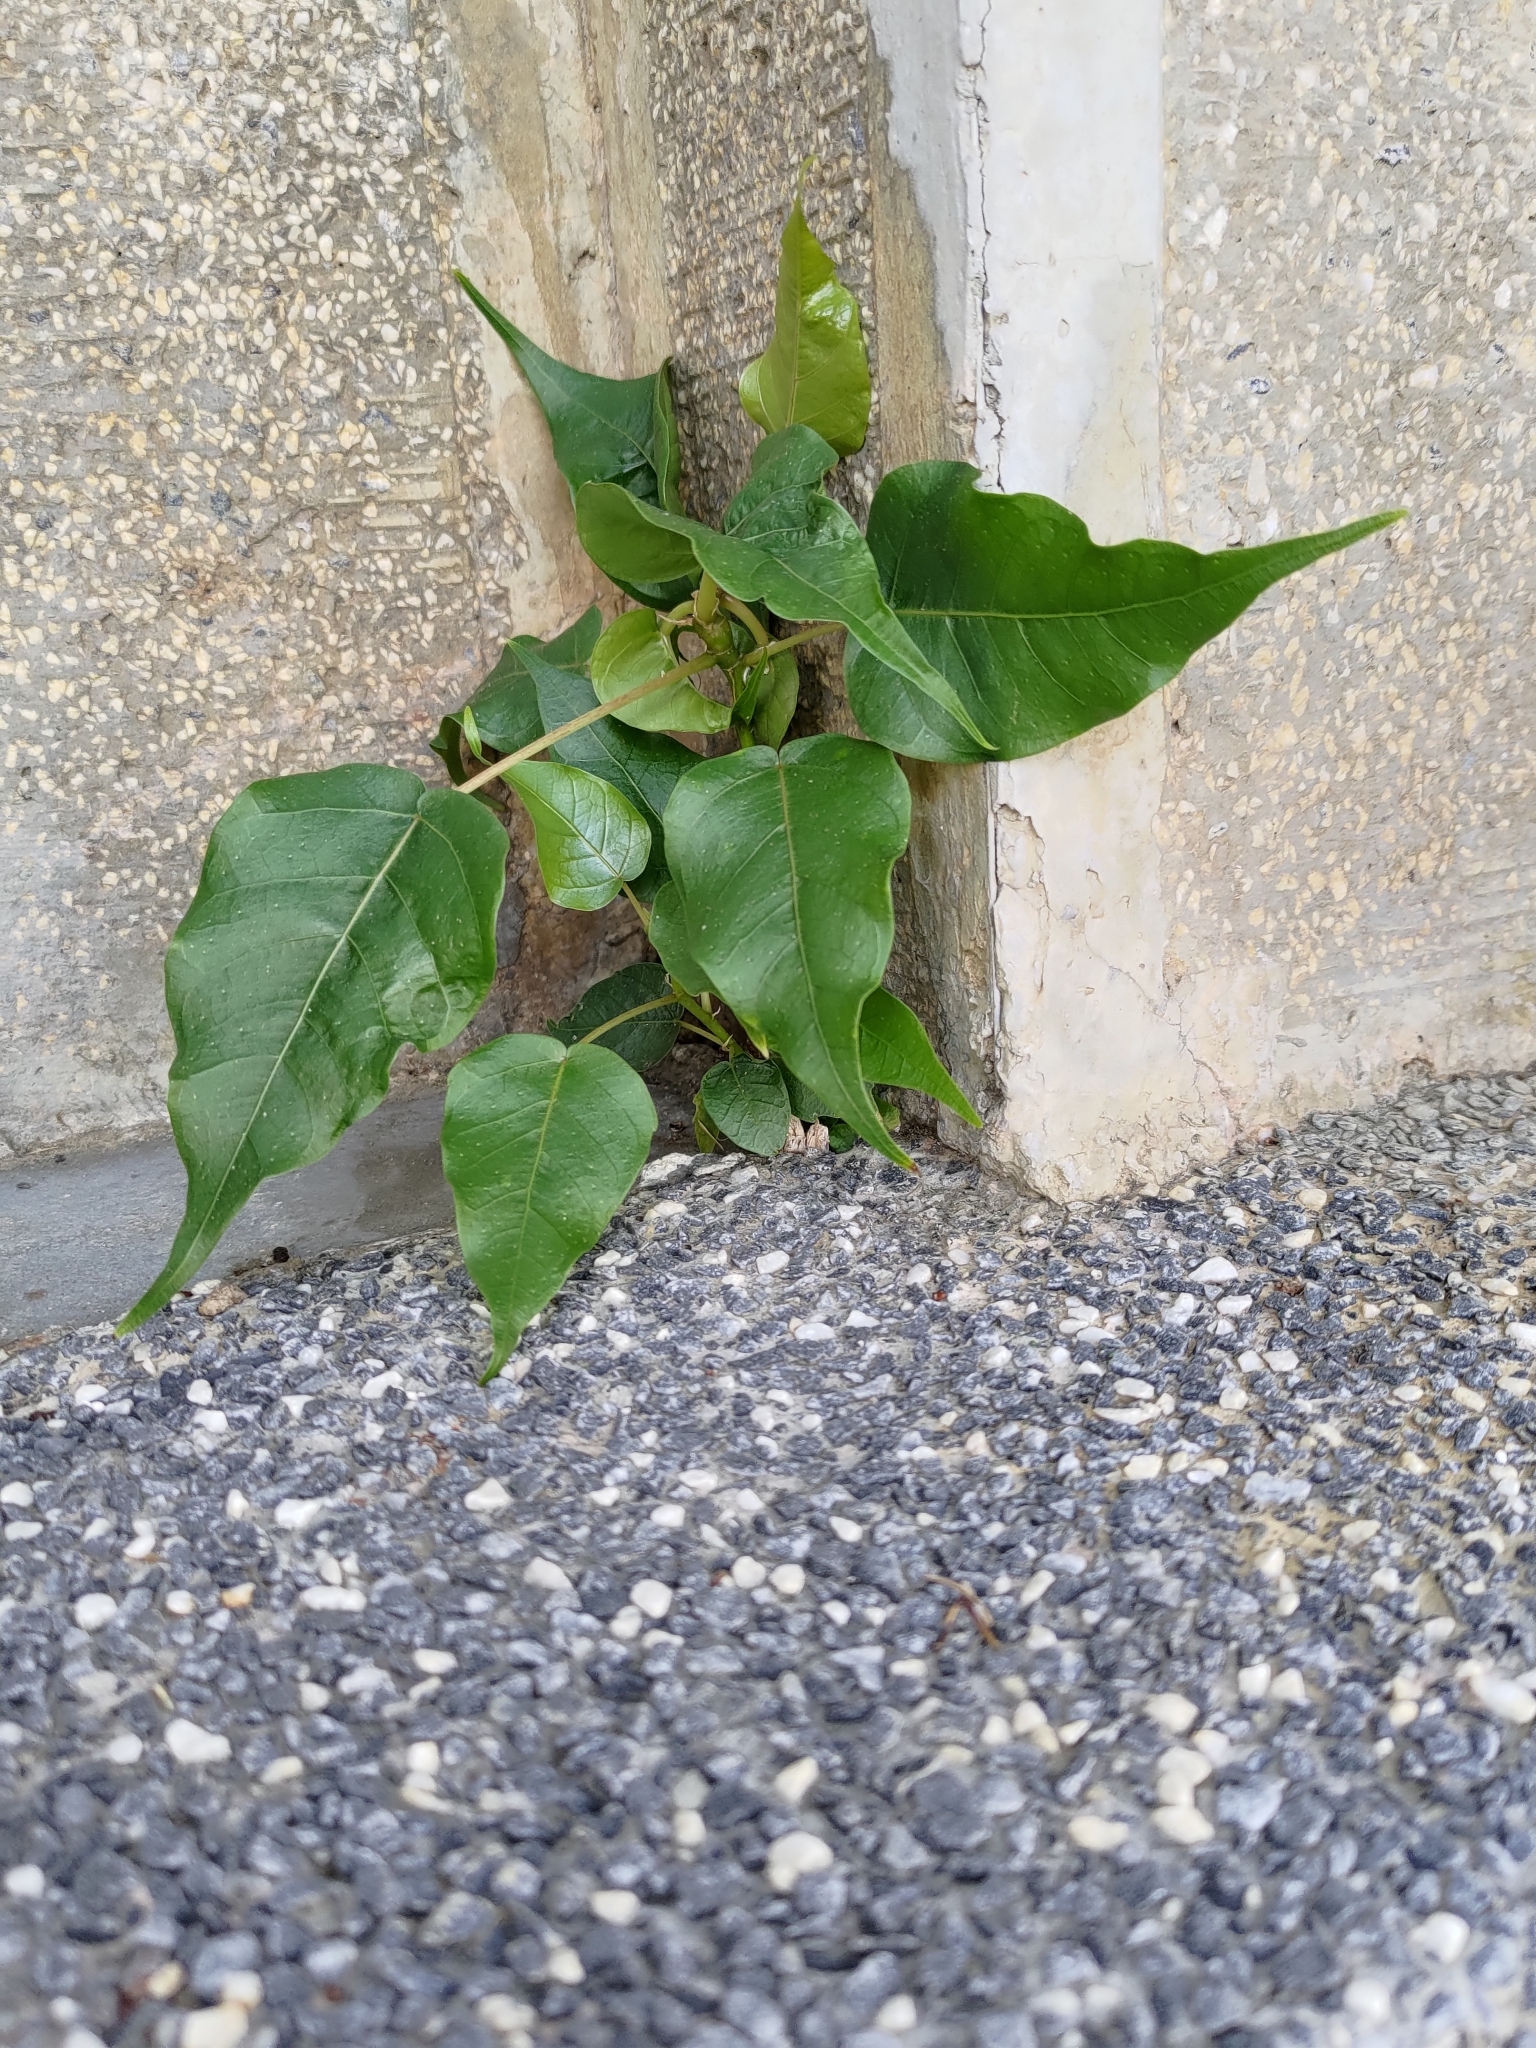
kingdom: Plantae
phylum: Tracheophyta
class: Magnoliopsida
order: Rosales
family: Moraceae
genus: Ficus
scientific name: Ficus religiosa
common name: Bodhi tree
